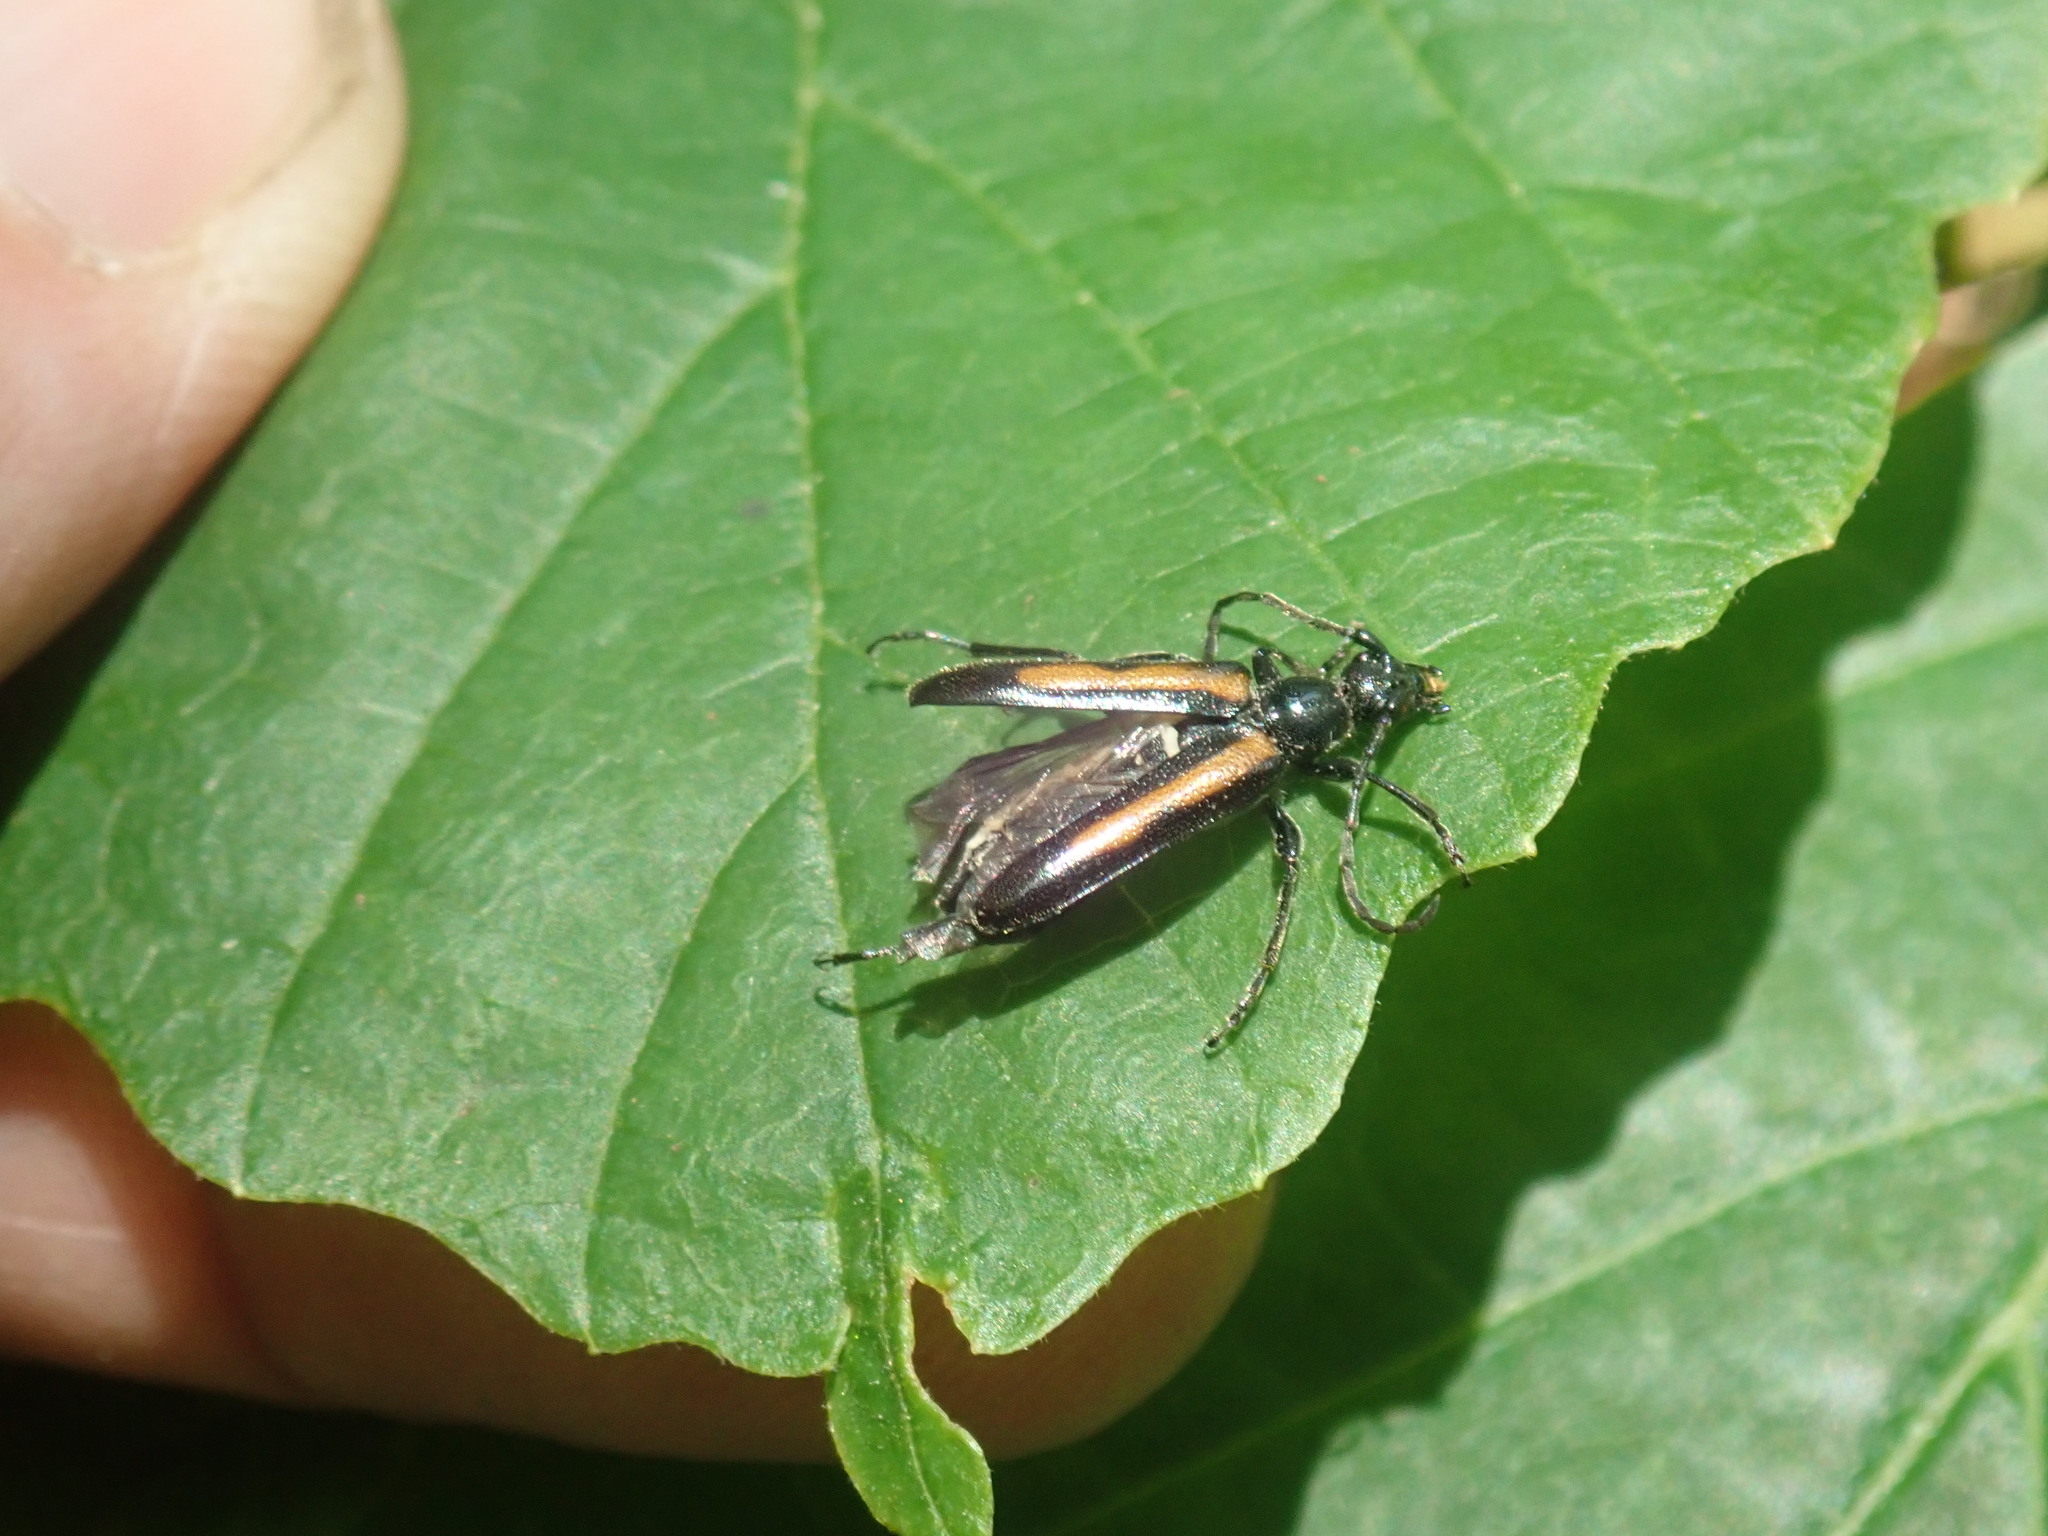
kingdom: Animalia
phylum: Arthropoda
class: Insecta
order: Coleoptera
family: Cerambycidae
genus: Strangalepta
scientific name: Strangalepta abbreviata
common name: Strangalepta flower longhorn beetle
